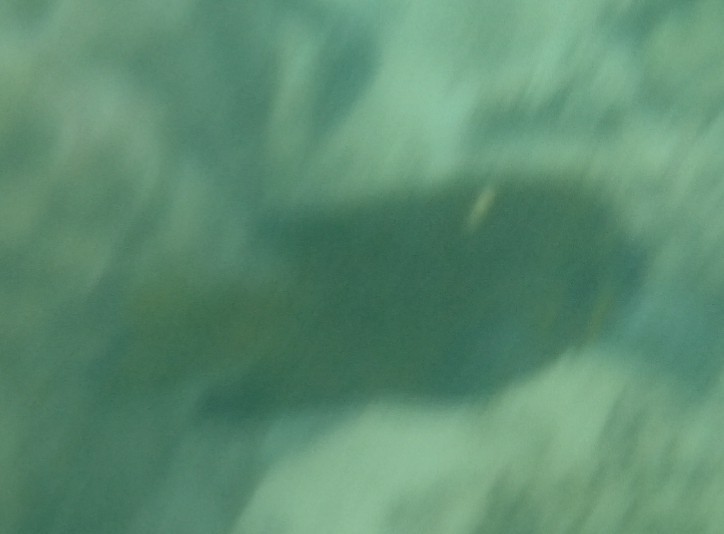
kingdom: Animalia
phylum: Chordata
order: Perciformes
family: Pomacentridae
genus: Dischistodus
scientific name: Dischistodus chrysopoecilus
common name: White-spot damsel
